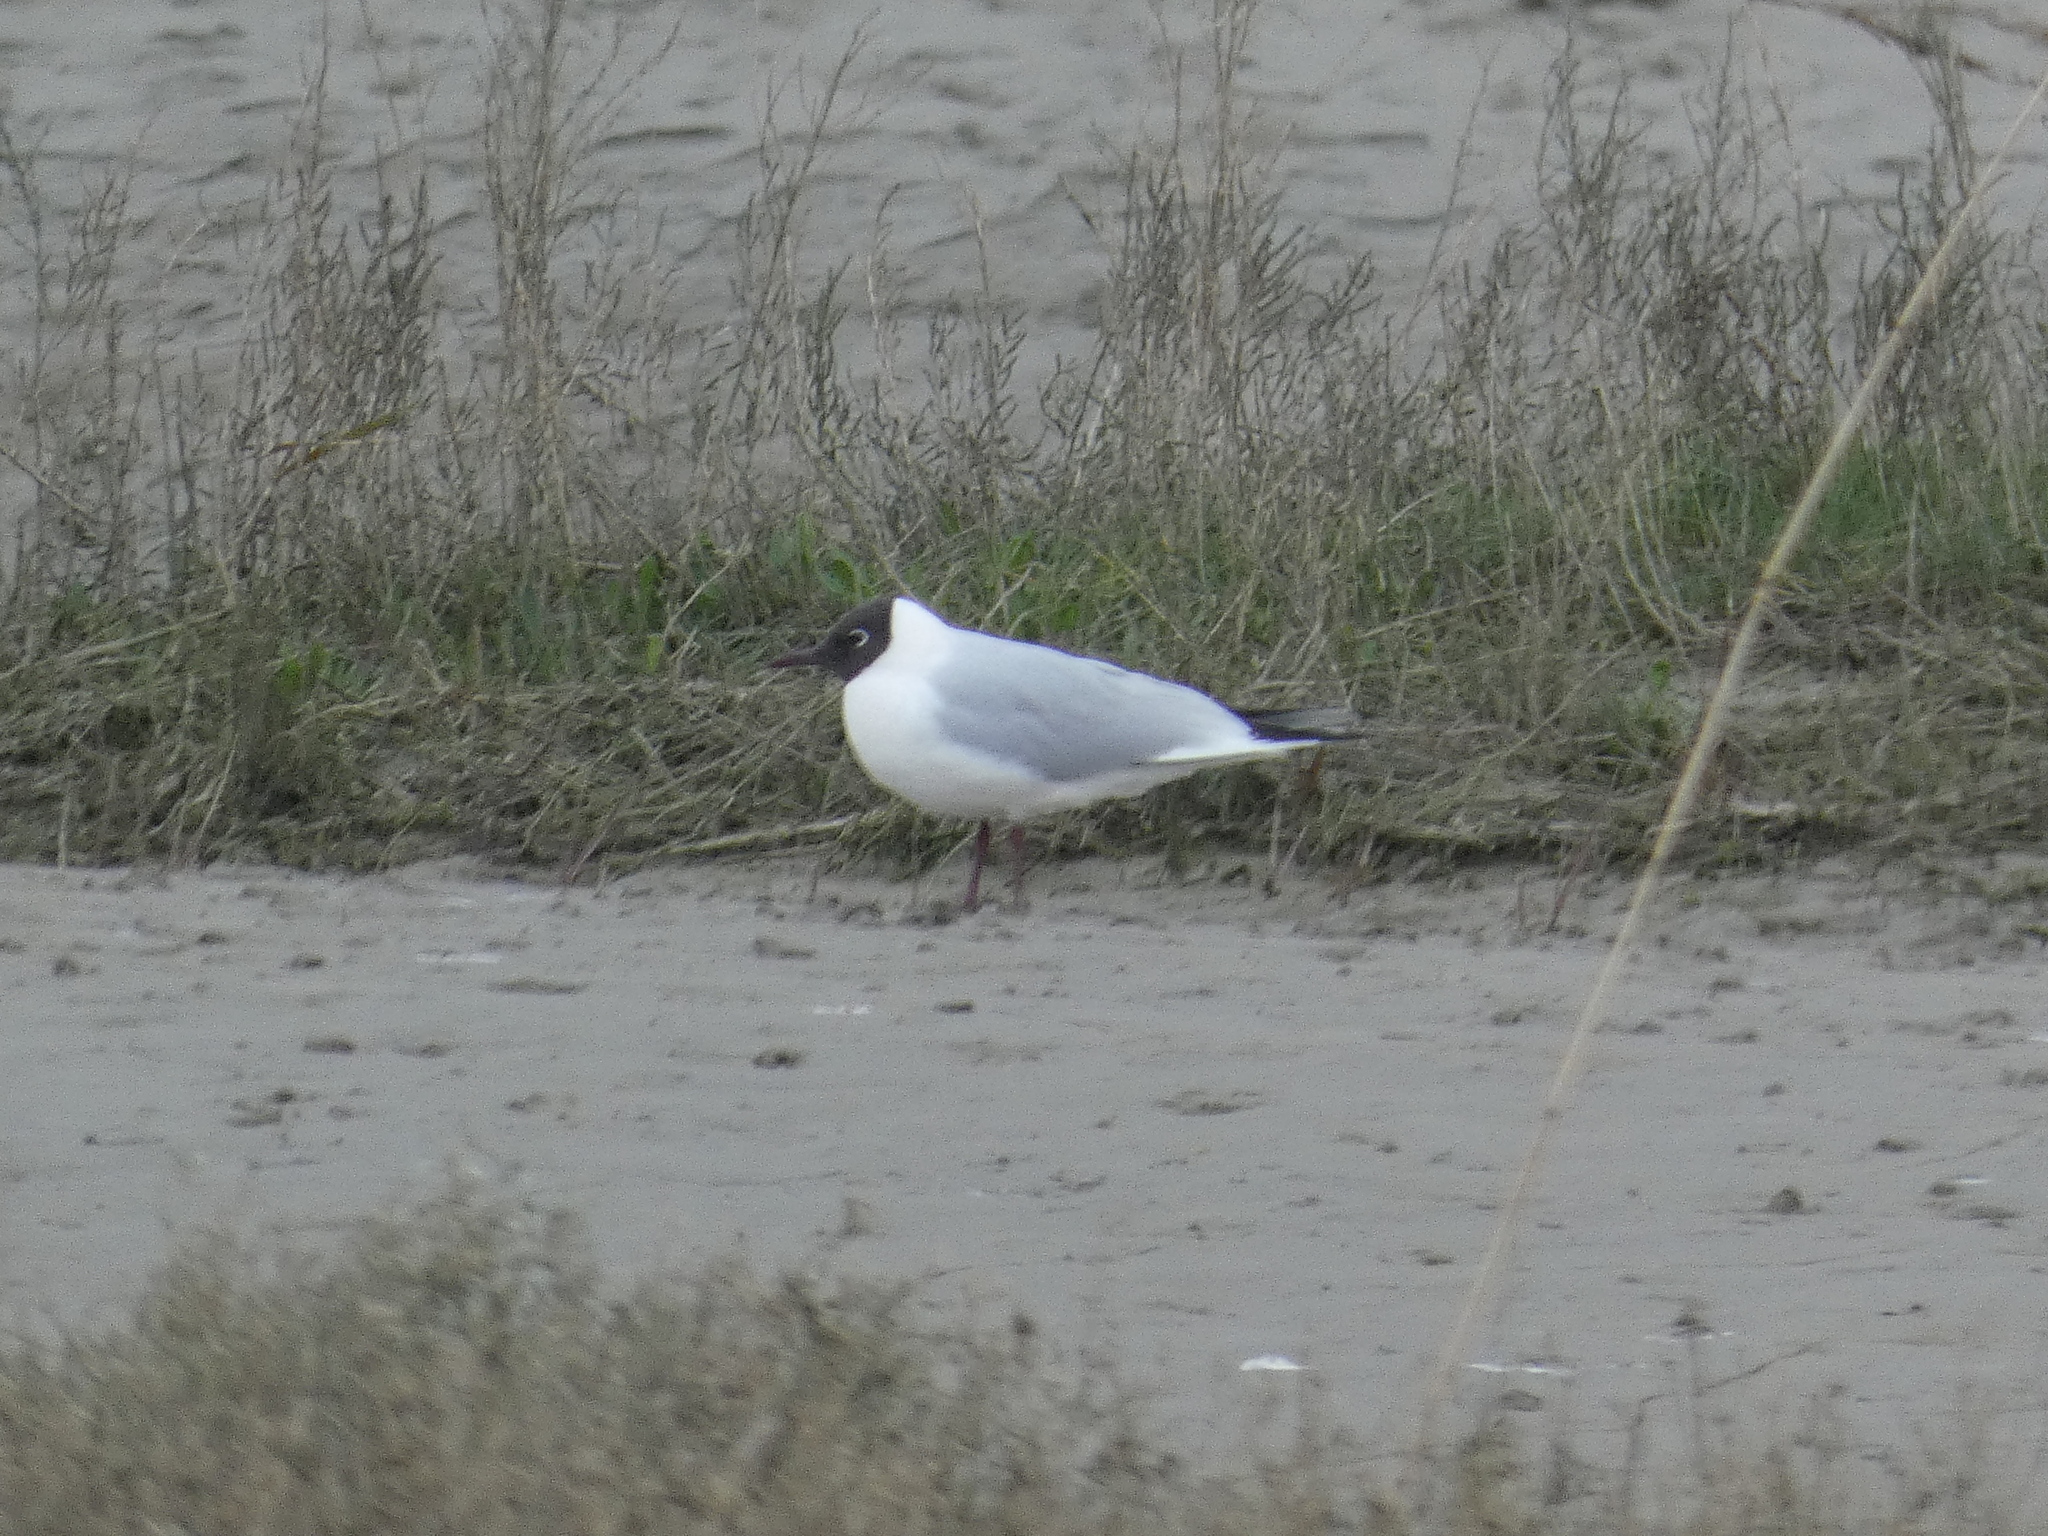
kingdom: Animalia
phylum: Chordata
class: Aves
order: Charadriiformes
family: Laridae
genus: Chroicocephalus
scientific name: Chroicocephalus ridibundus
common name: Black-headed gull
